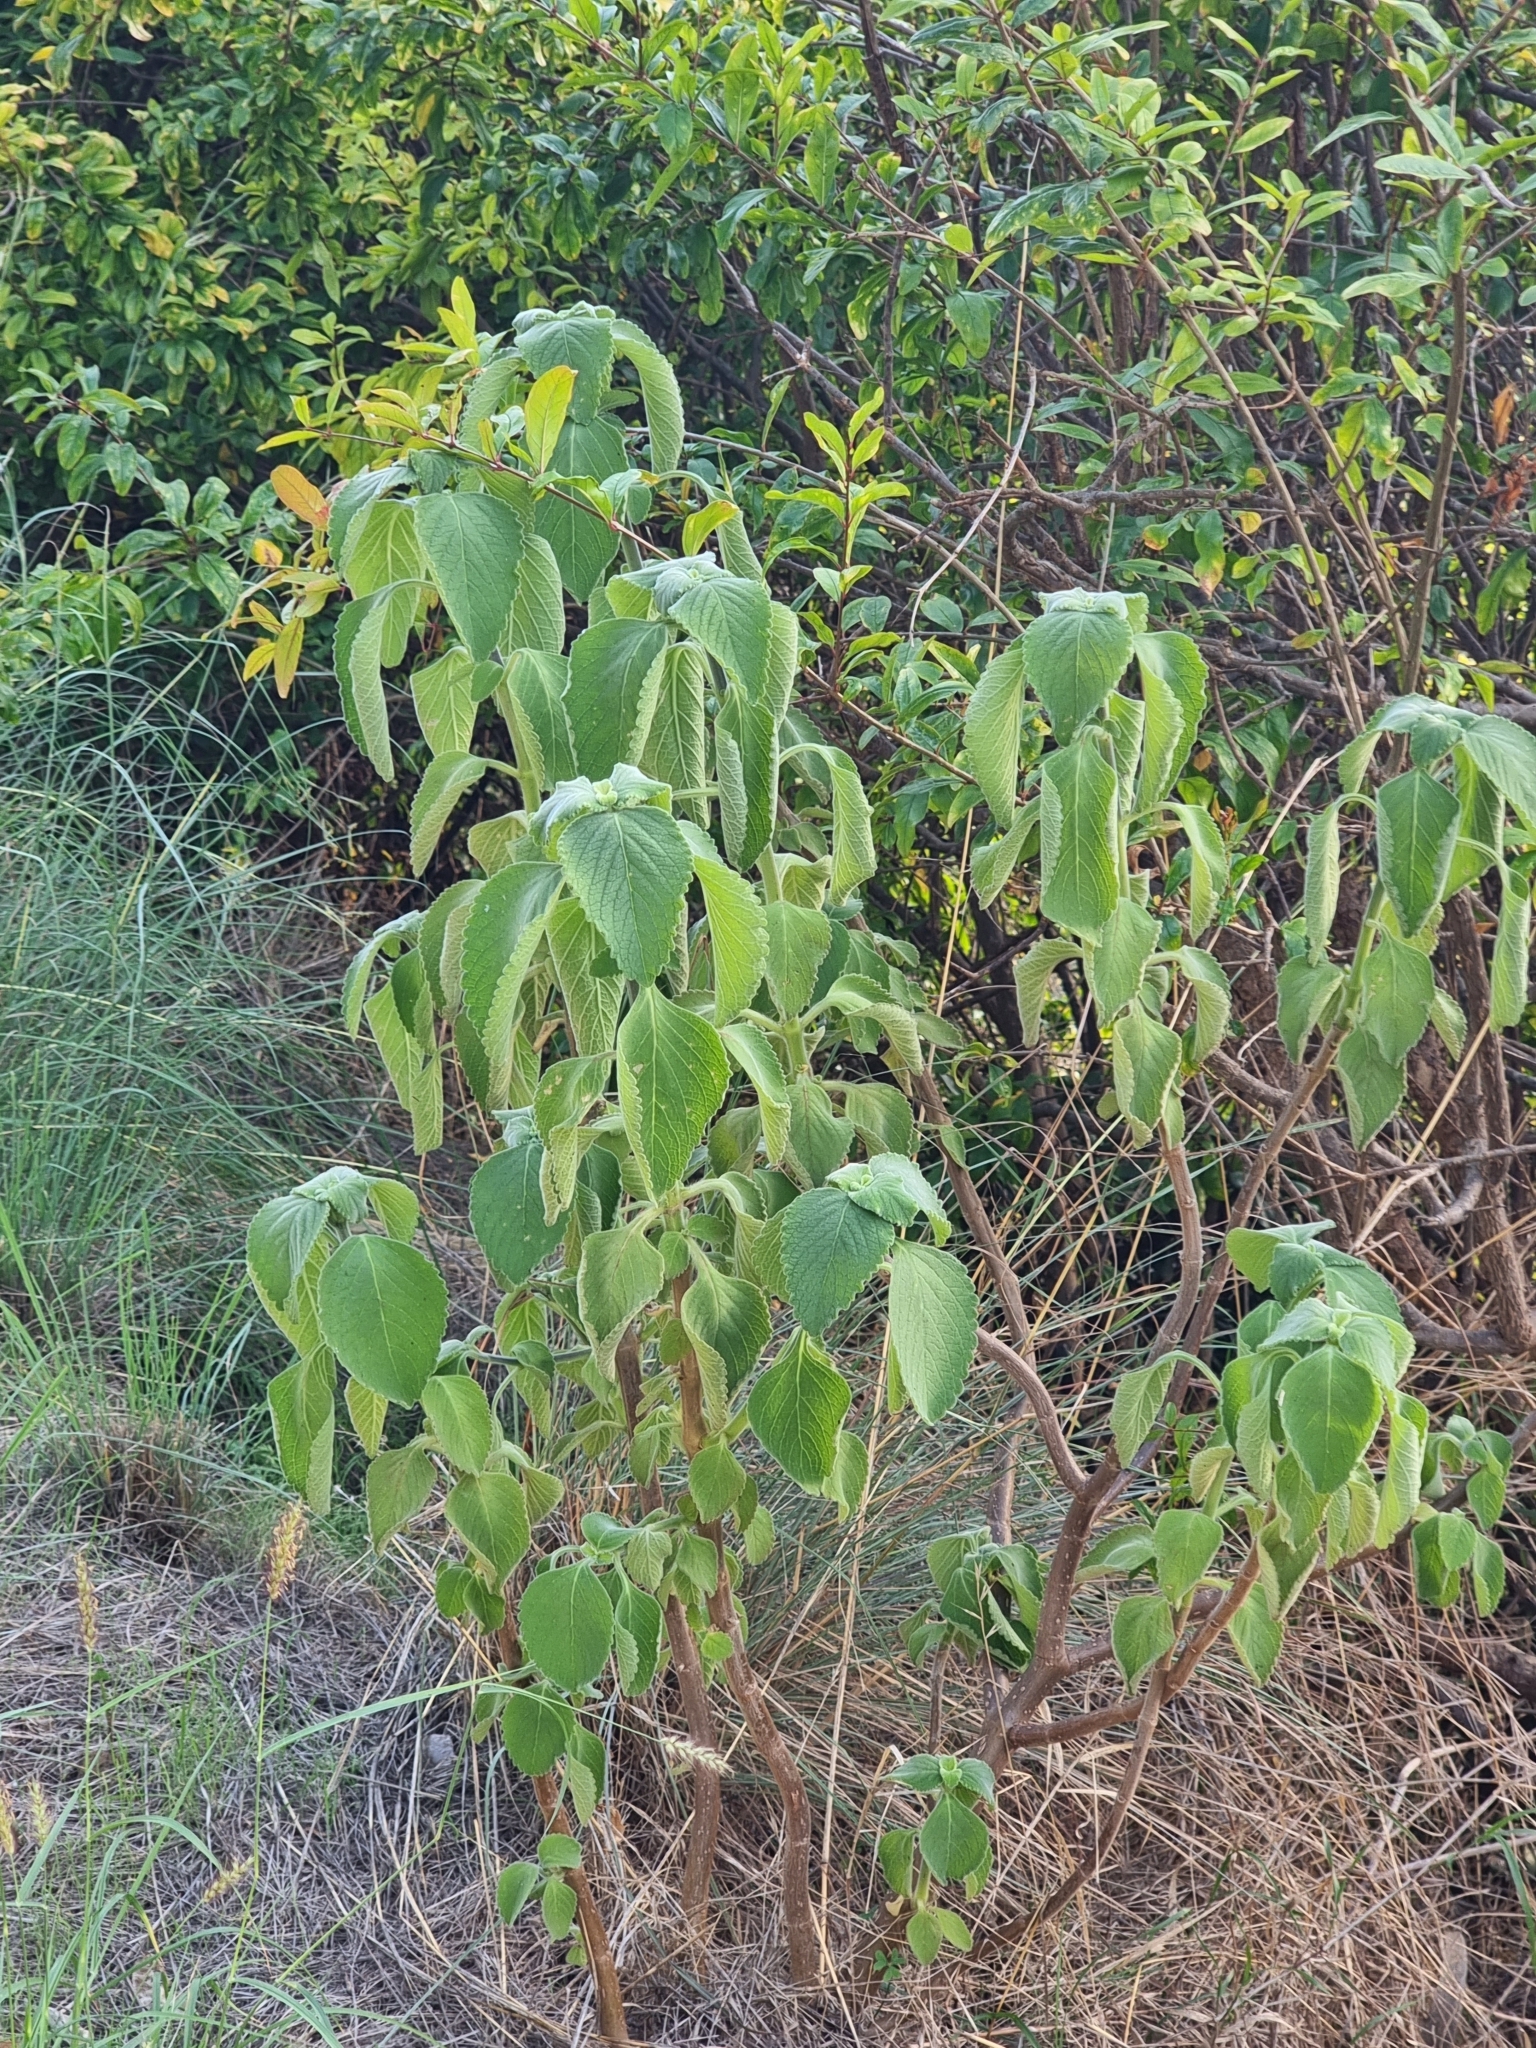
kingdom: Plantae
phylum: Tracheophyta
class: Magnoliopsida
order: Lamiales
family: Lamiaceae
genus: Coleus
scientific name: Coleus barbatus
